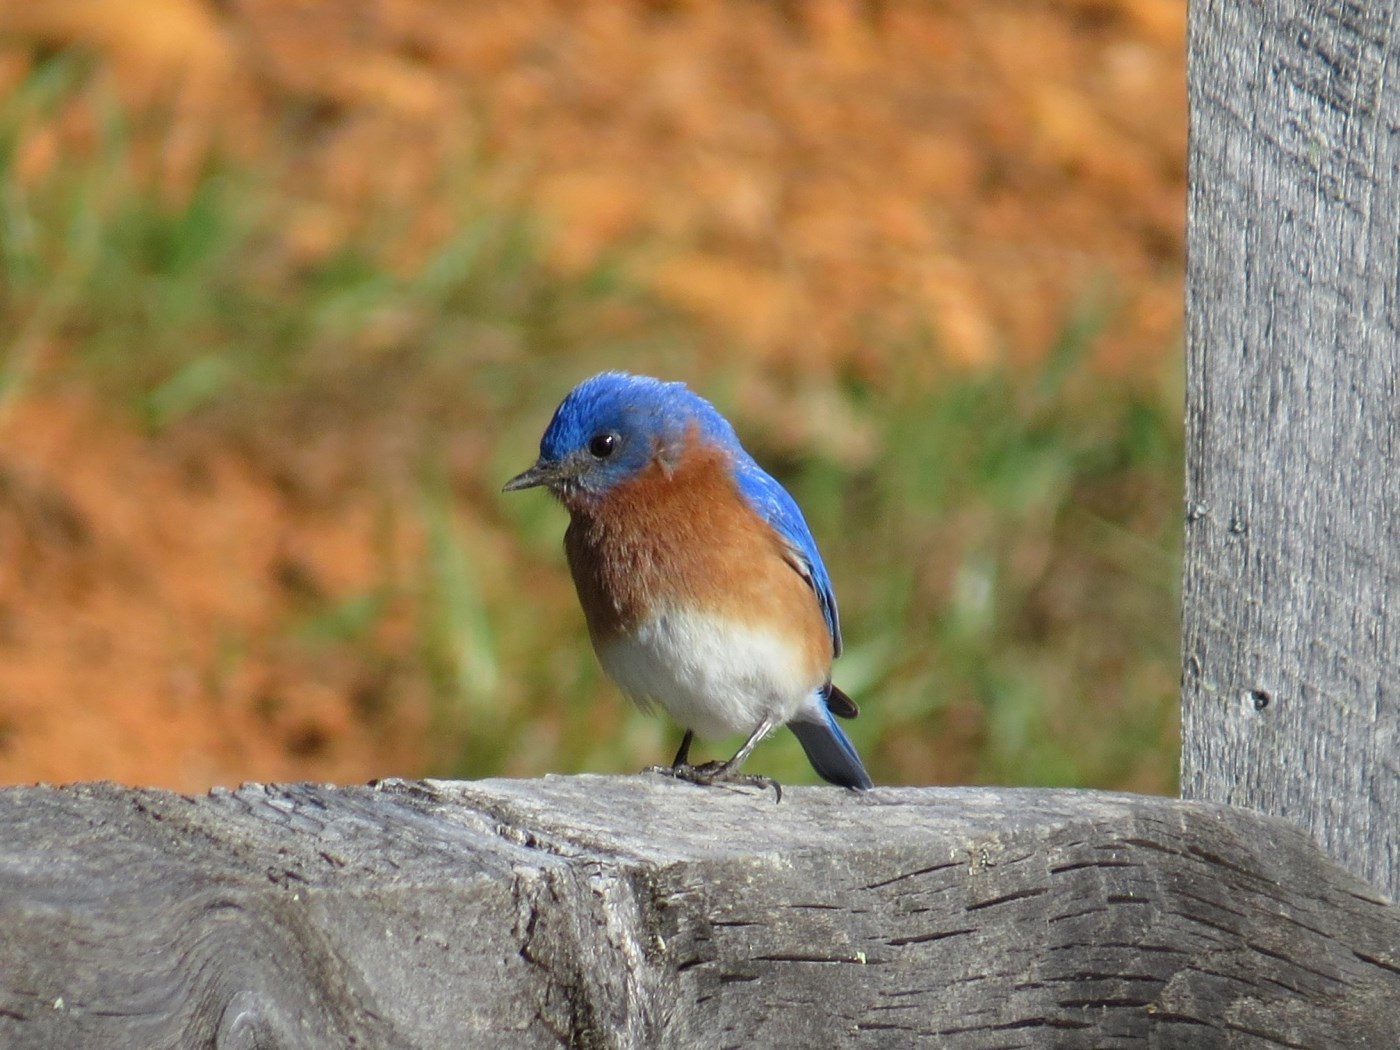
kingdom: Animalia
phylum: Chordata
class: Aves
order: Passeriformes
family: Turdidae
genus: Sialia
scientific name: Sialia sialis
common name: Eastern bluebird
